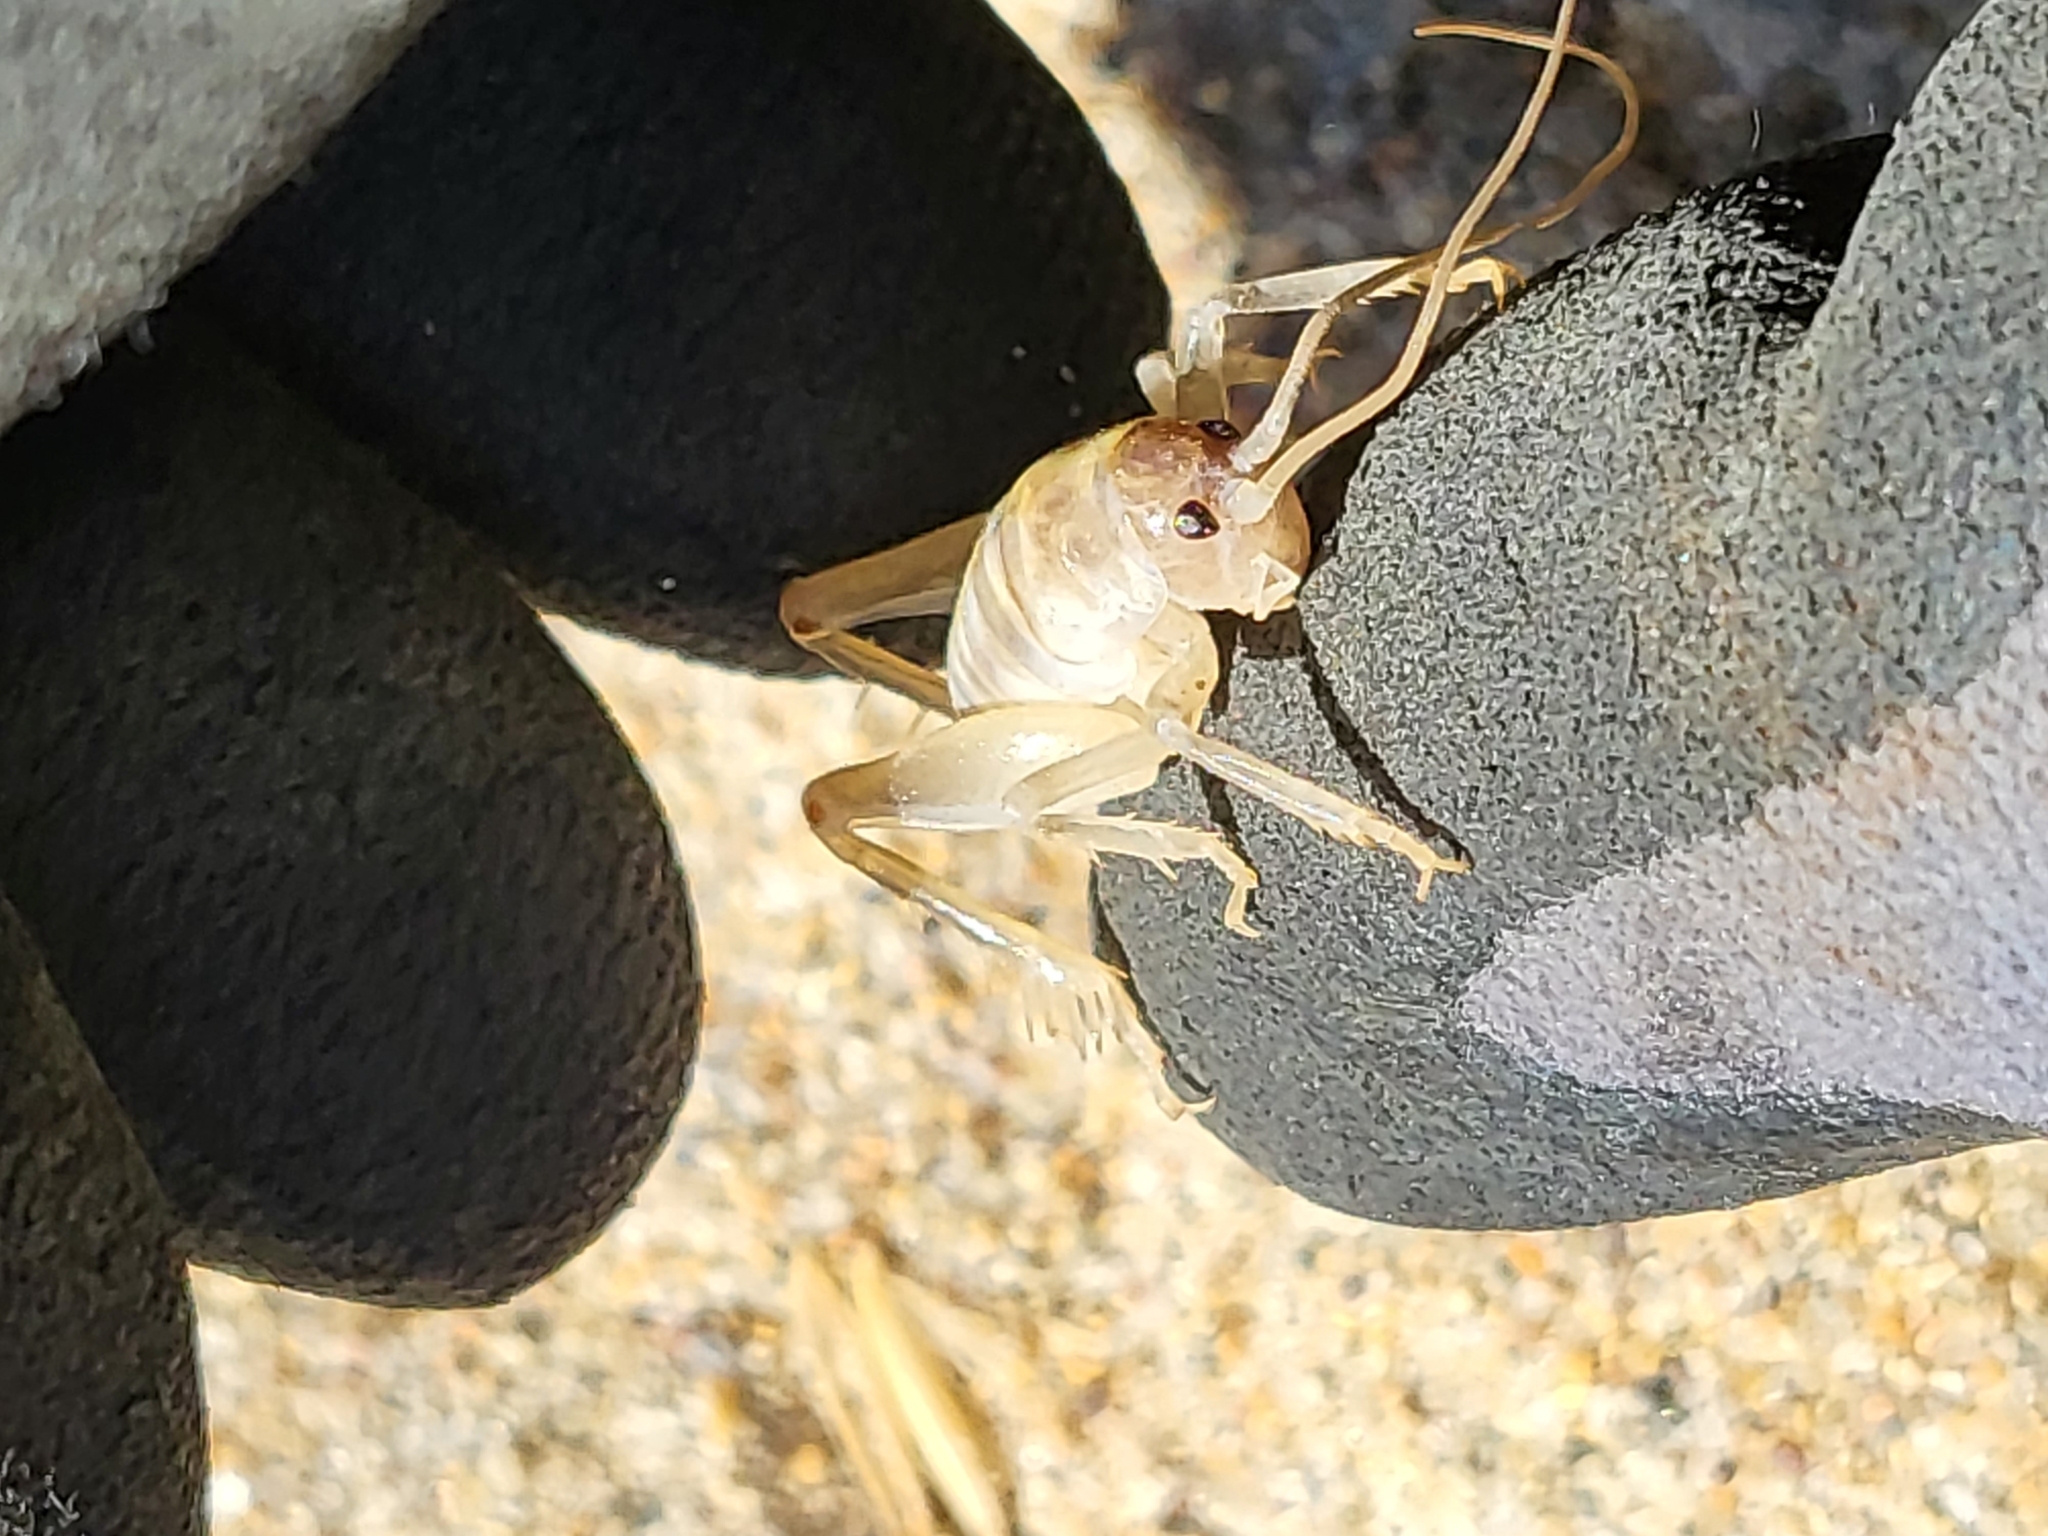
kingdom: Animalia
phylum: Arthropoda
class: Insecta
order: Orthoptera
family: Rhaphidophoridae
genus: Rhachocnemis
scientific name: Rhachocnemis validus
